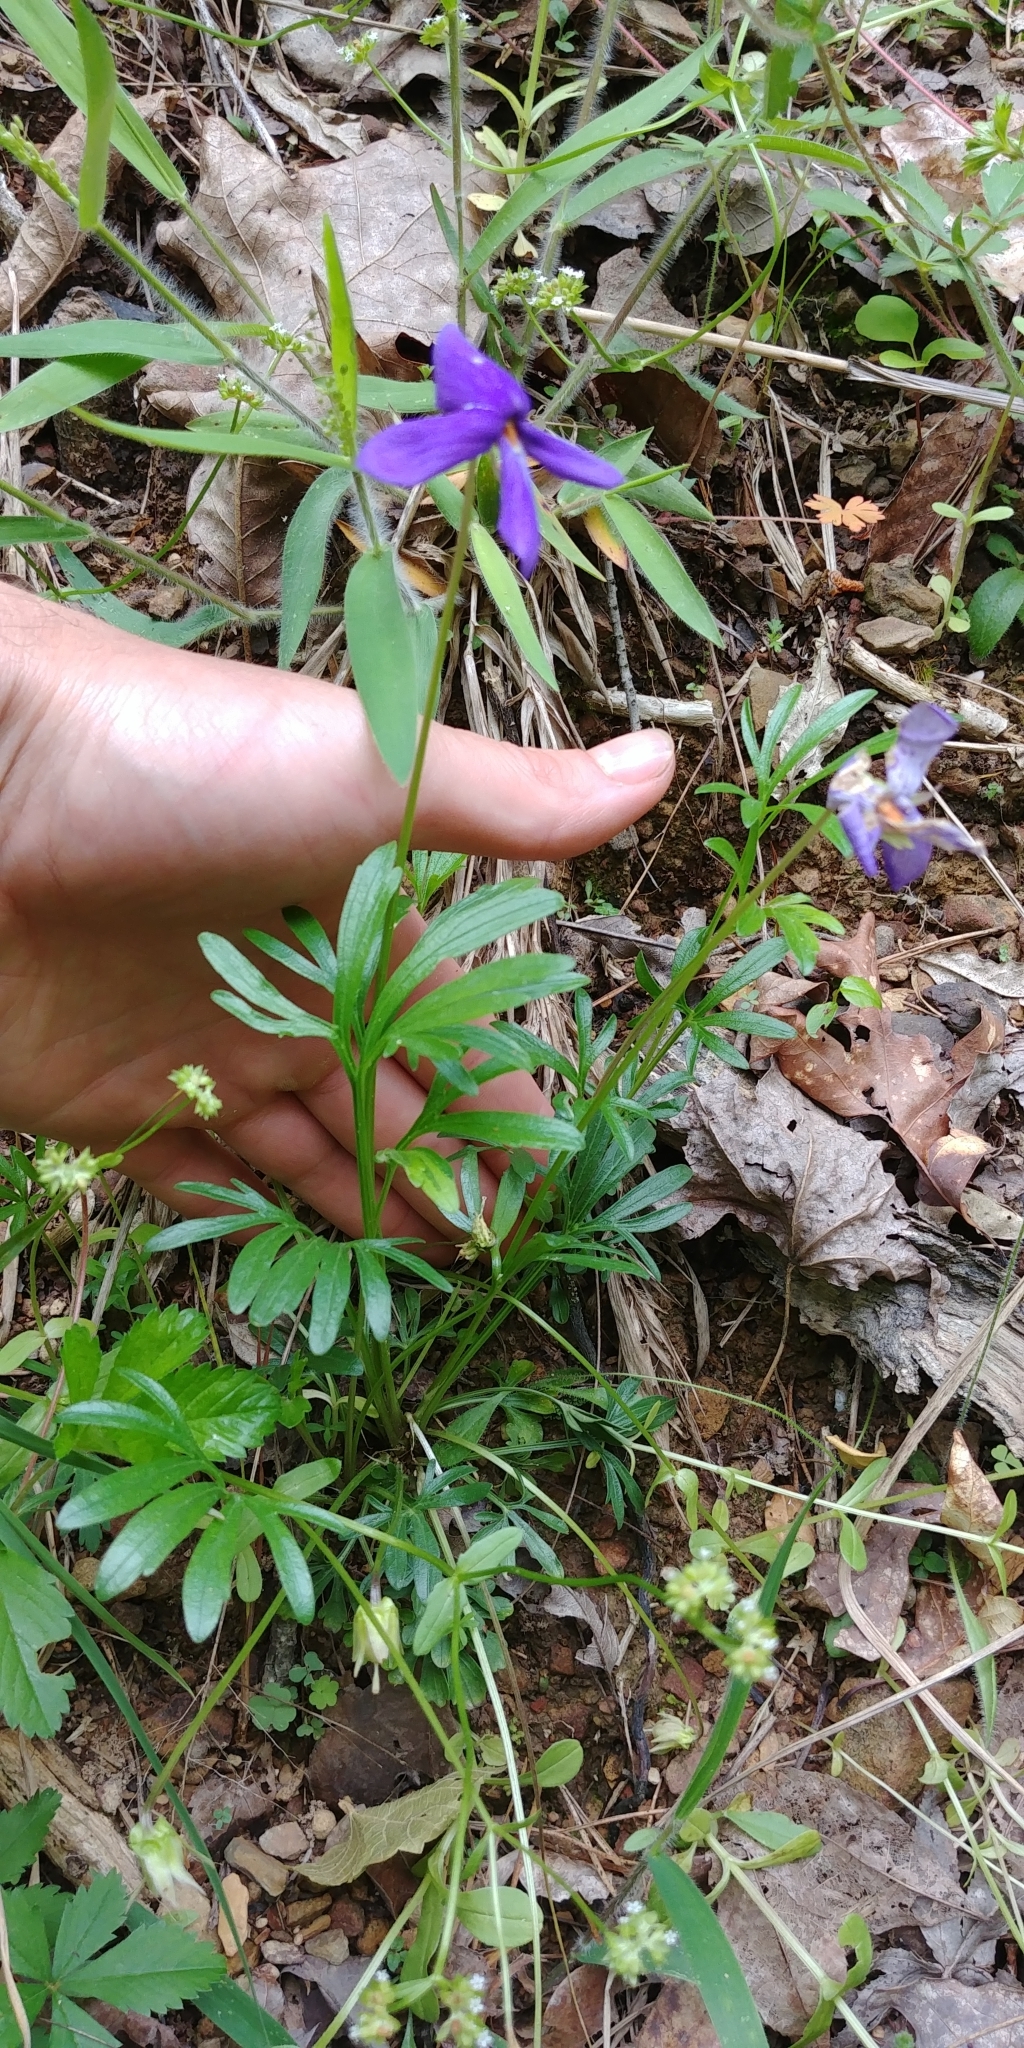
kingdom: Plantae
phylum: Tracheophyta
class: Magnoliopsida
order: Malpighiales
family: Violaceae
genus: Viola
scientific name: Viola pedata
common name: Pansy violet
